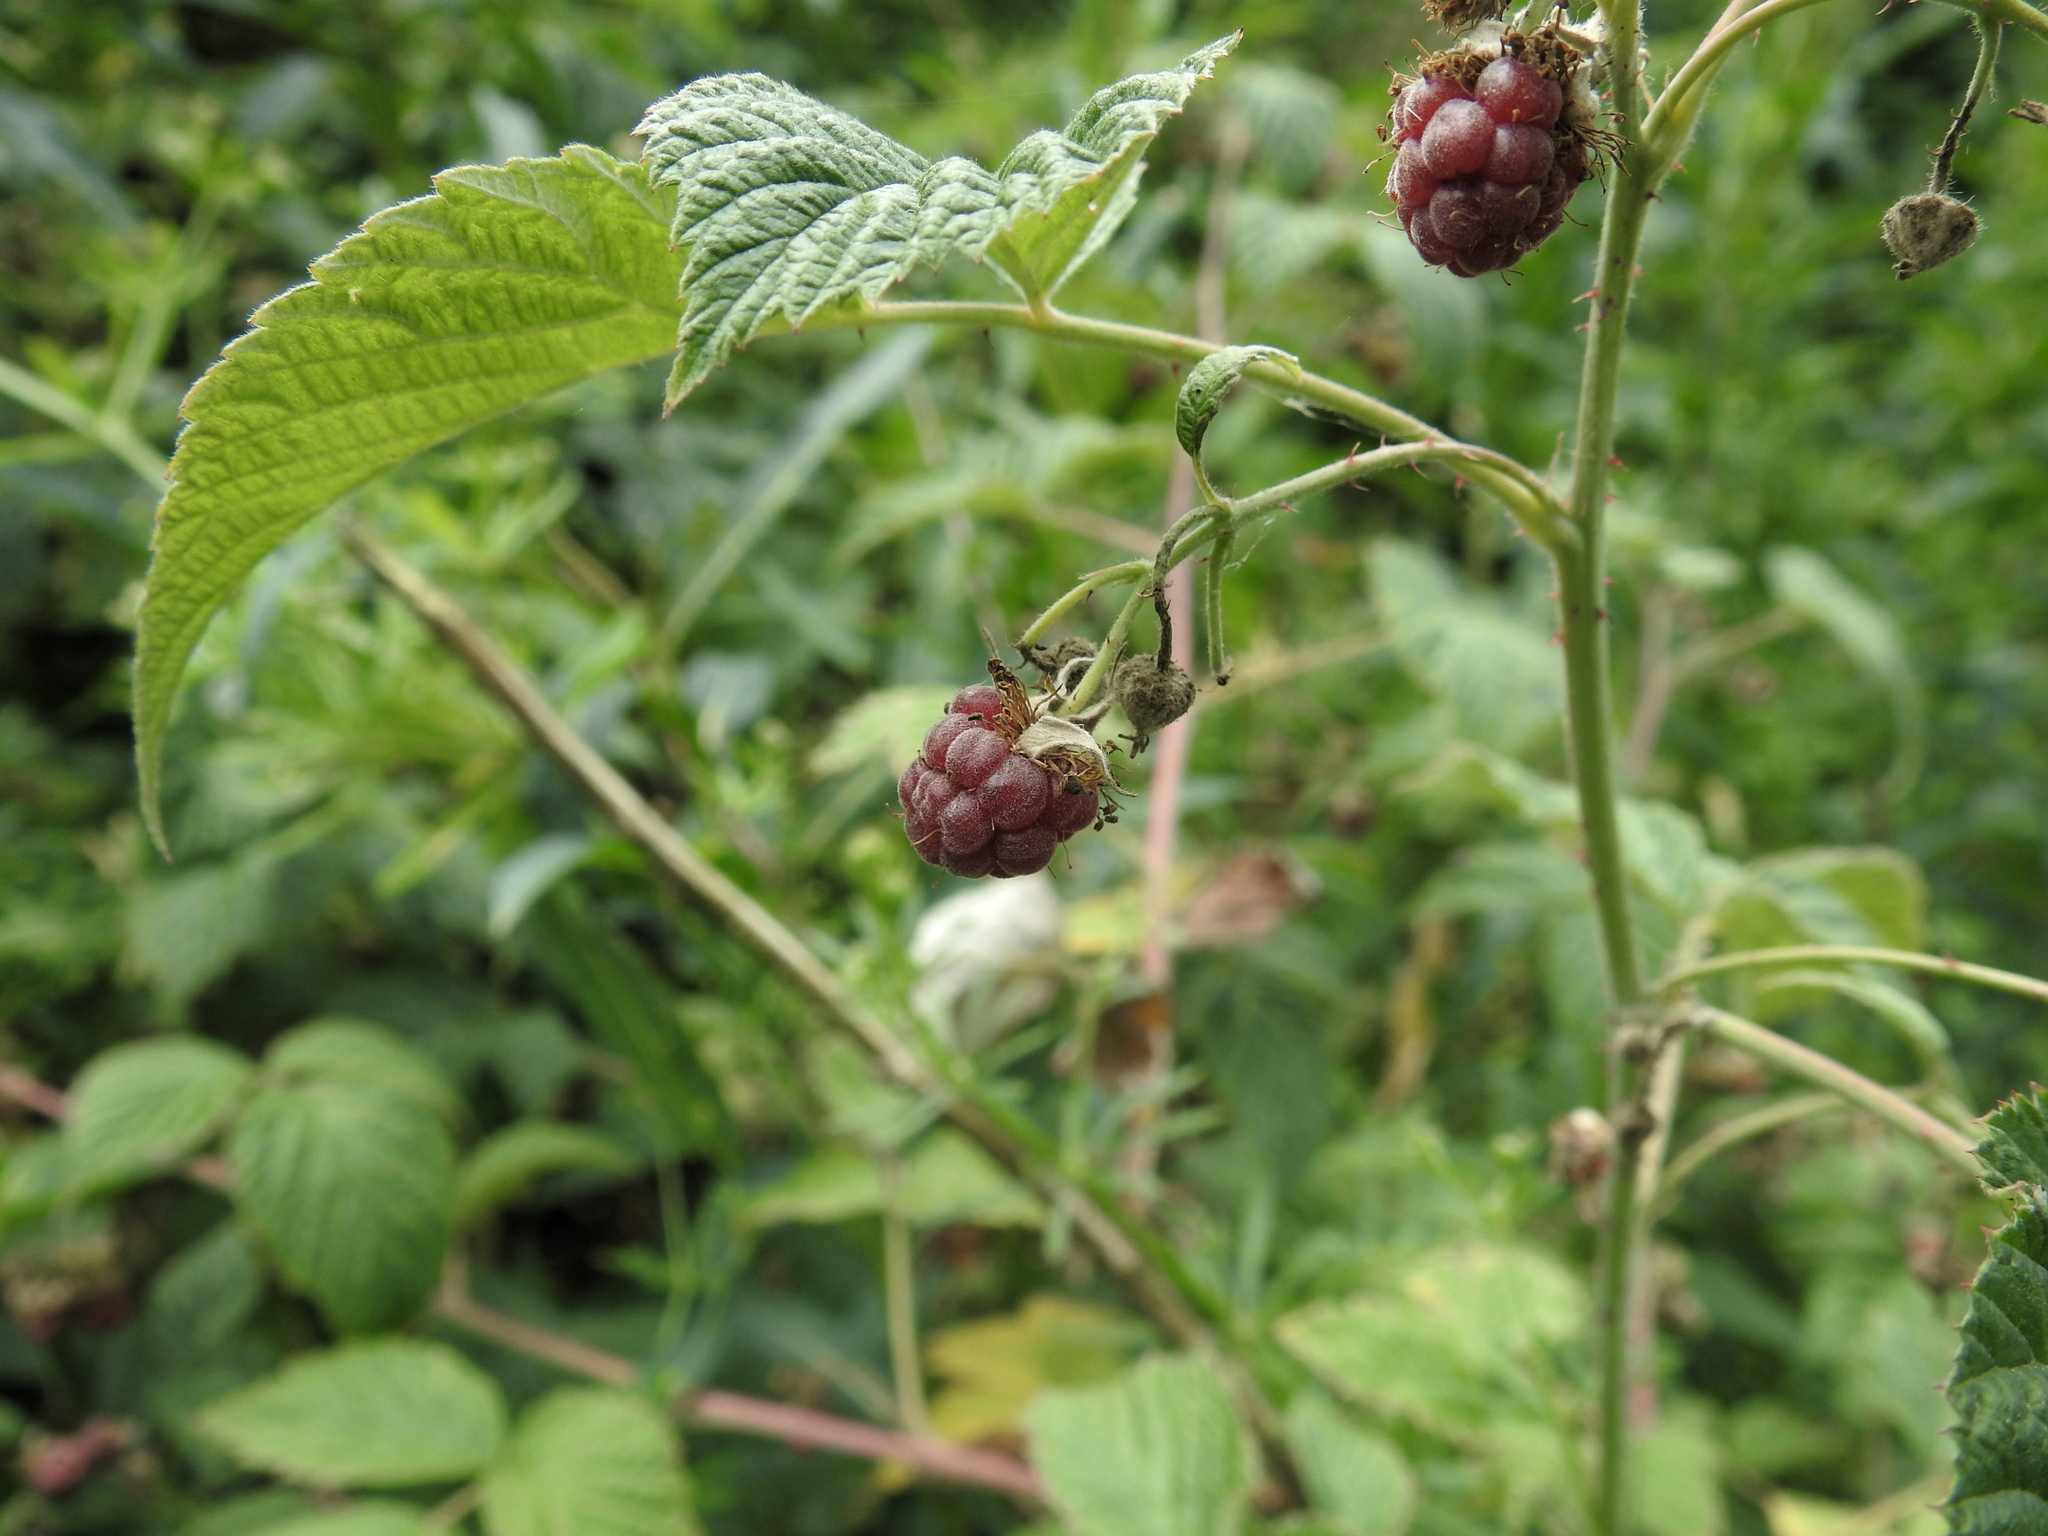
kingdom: Plantae
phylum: Tracheophyta
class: Magnoliopsida
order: Rosales
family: Rosaceae
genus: Rubus
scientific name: Rubus idaeus
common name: Raspberry
